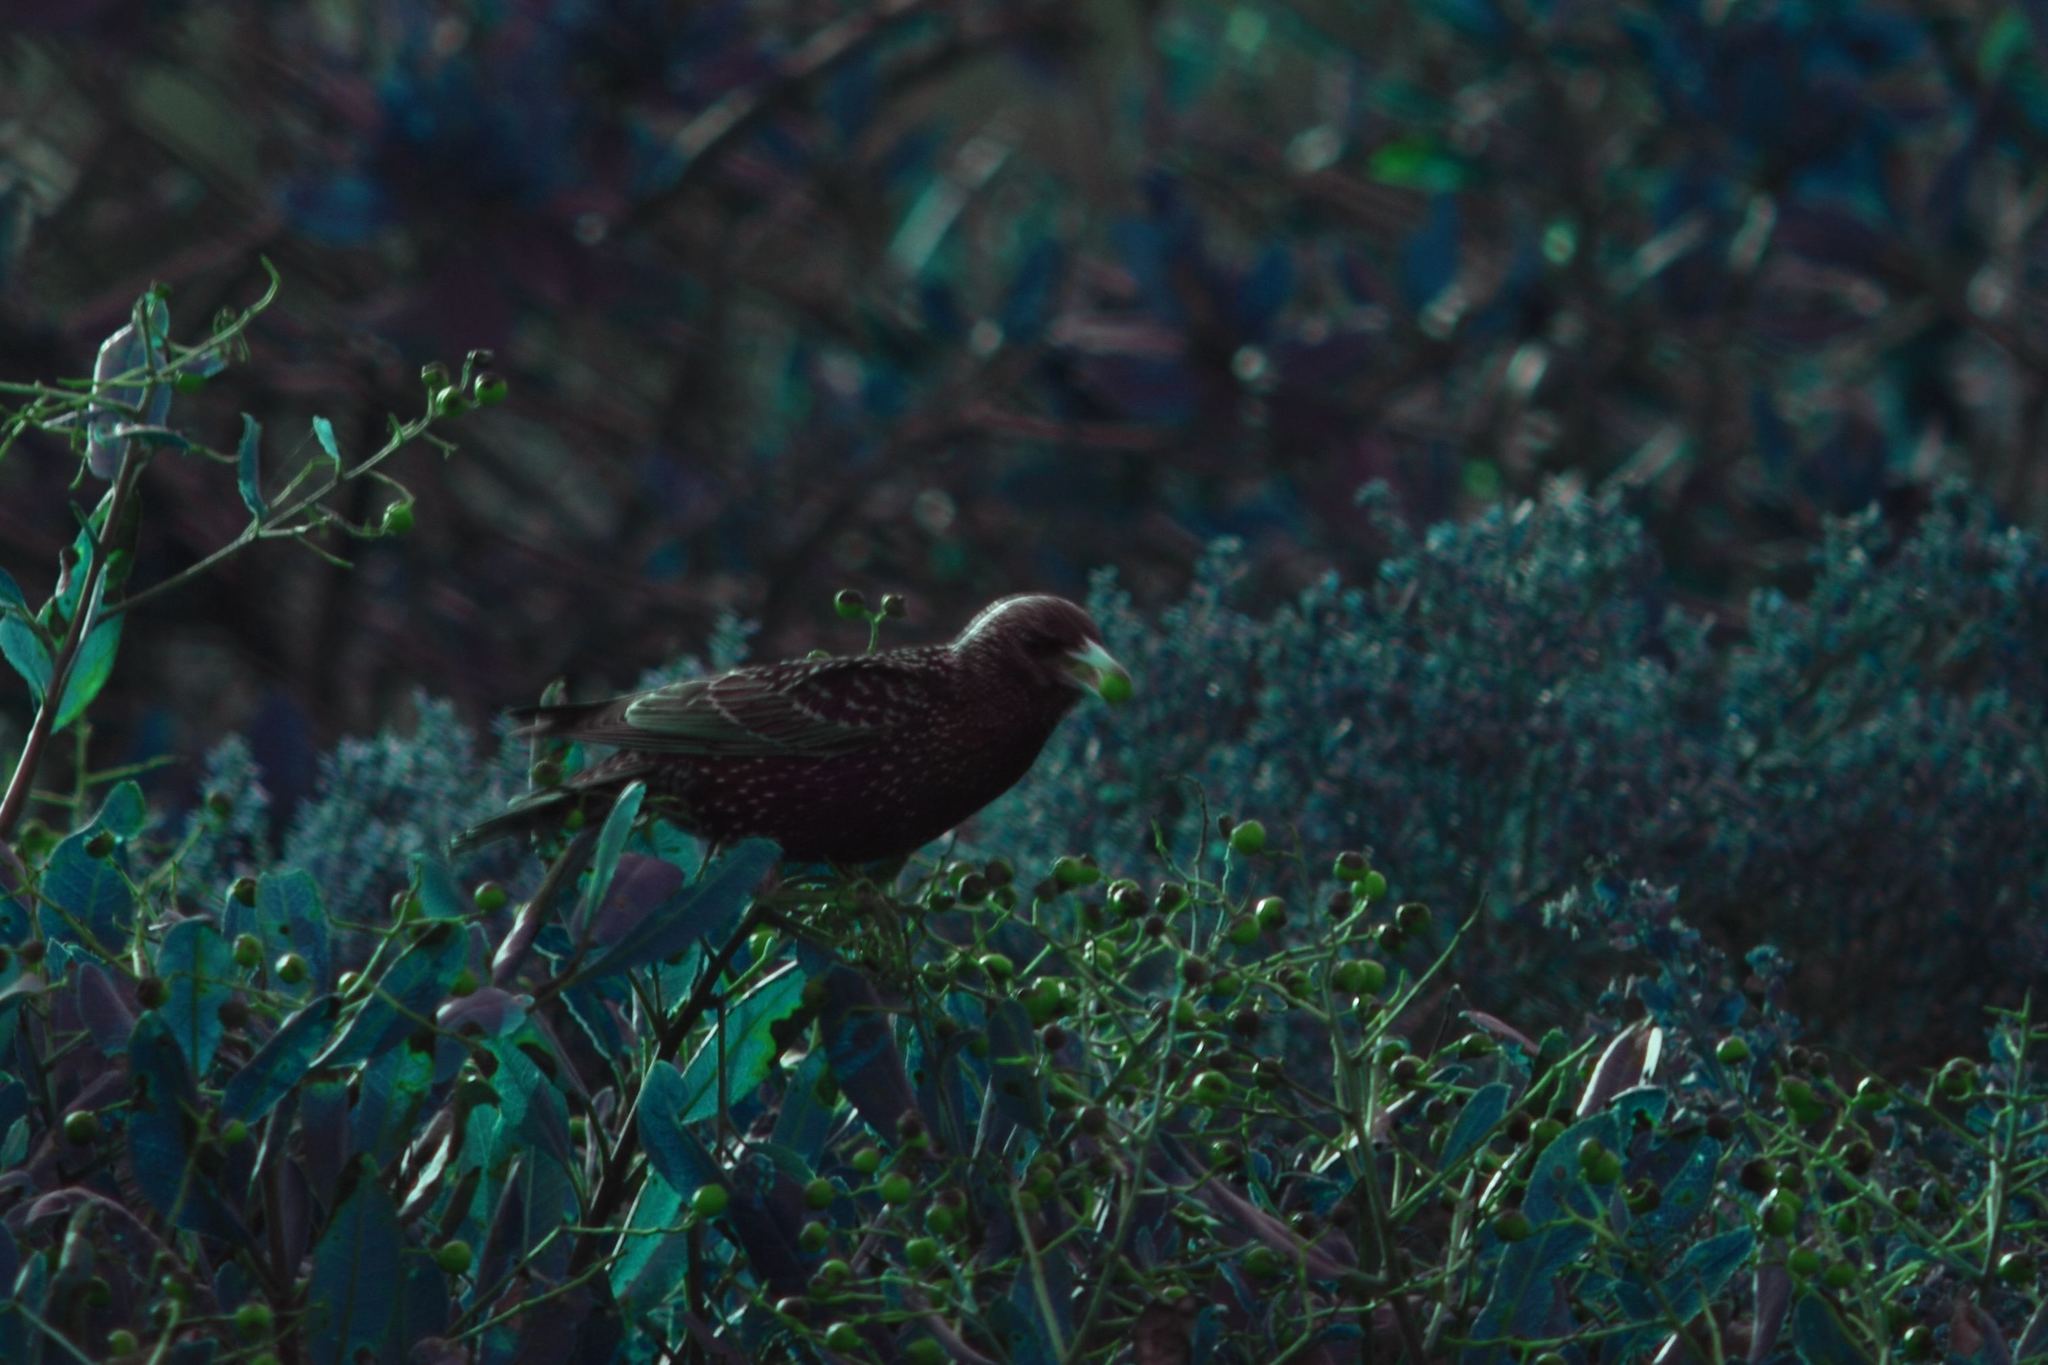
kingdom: Animalia
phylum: Chordata
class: Aves
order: Passeriformes
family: Sturnidae
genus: Sturnus
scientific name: Sturnus vulgaris
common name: Common starling
